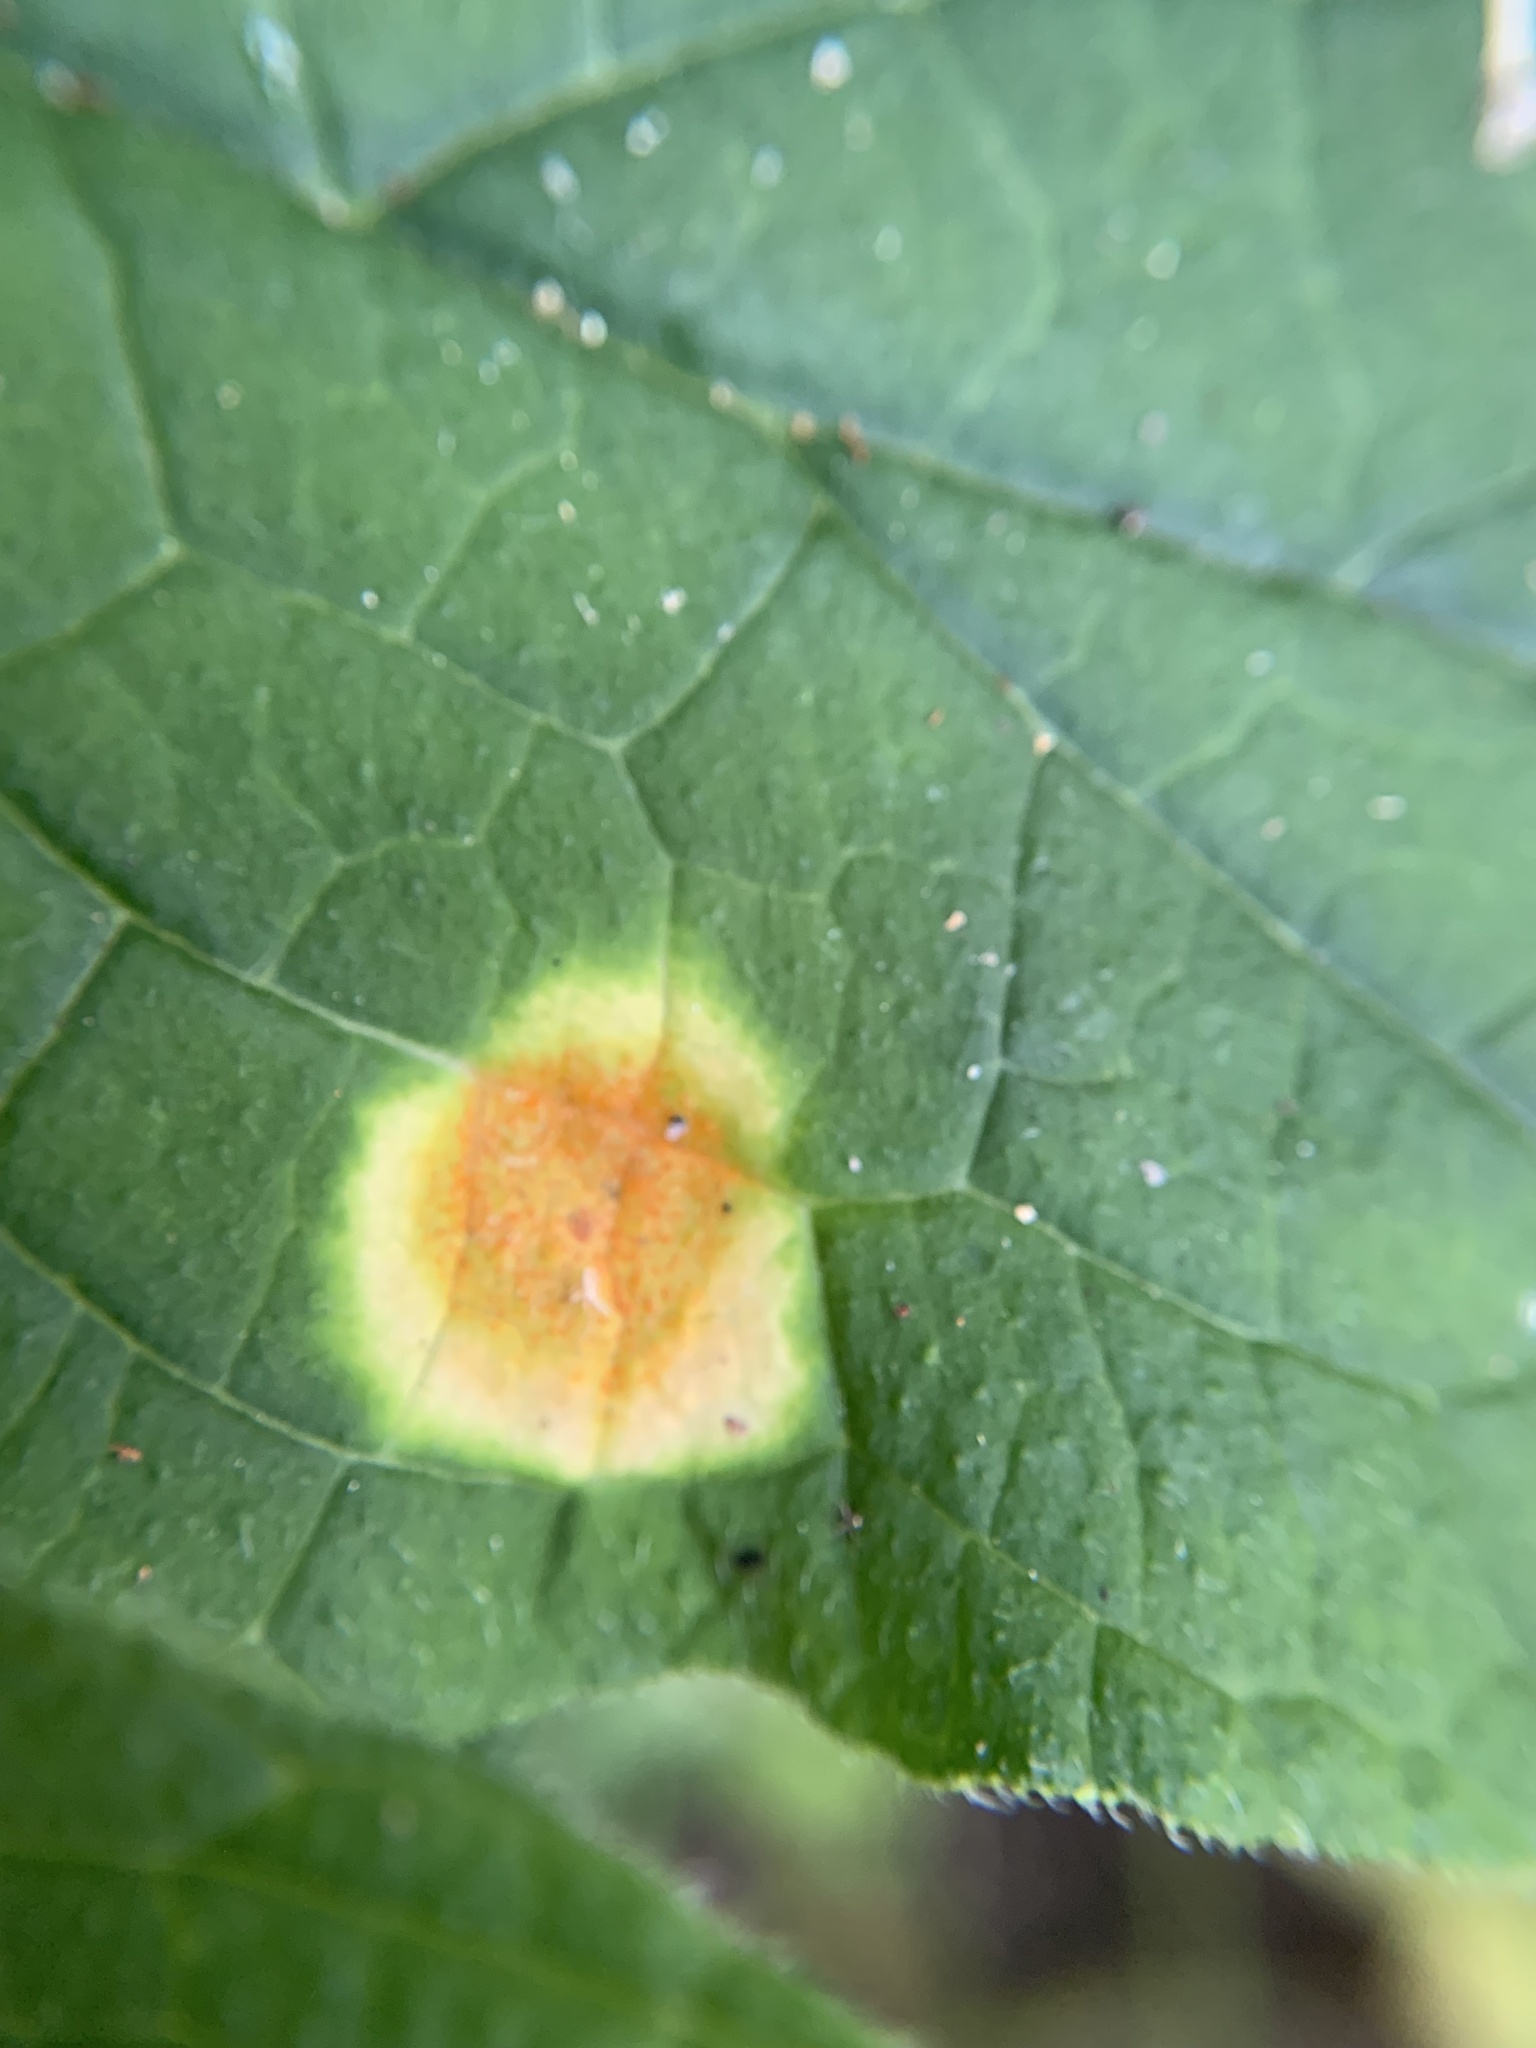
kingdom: Fungi
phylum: Basidiomycota
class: Pucciniomycetes
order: Pucciniales
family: Pucciniaceae
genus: Puccinia
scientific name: Puccinia bromina
